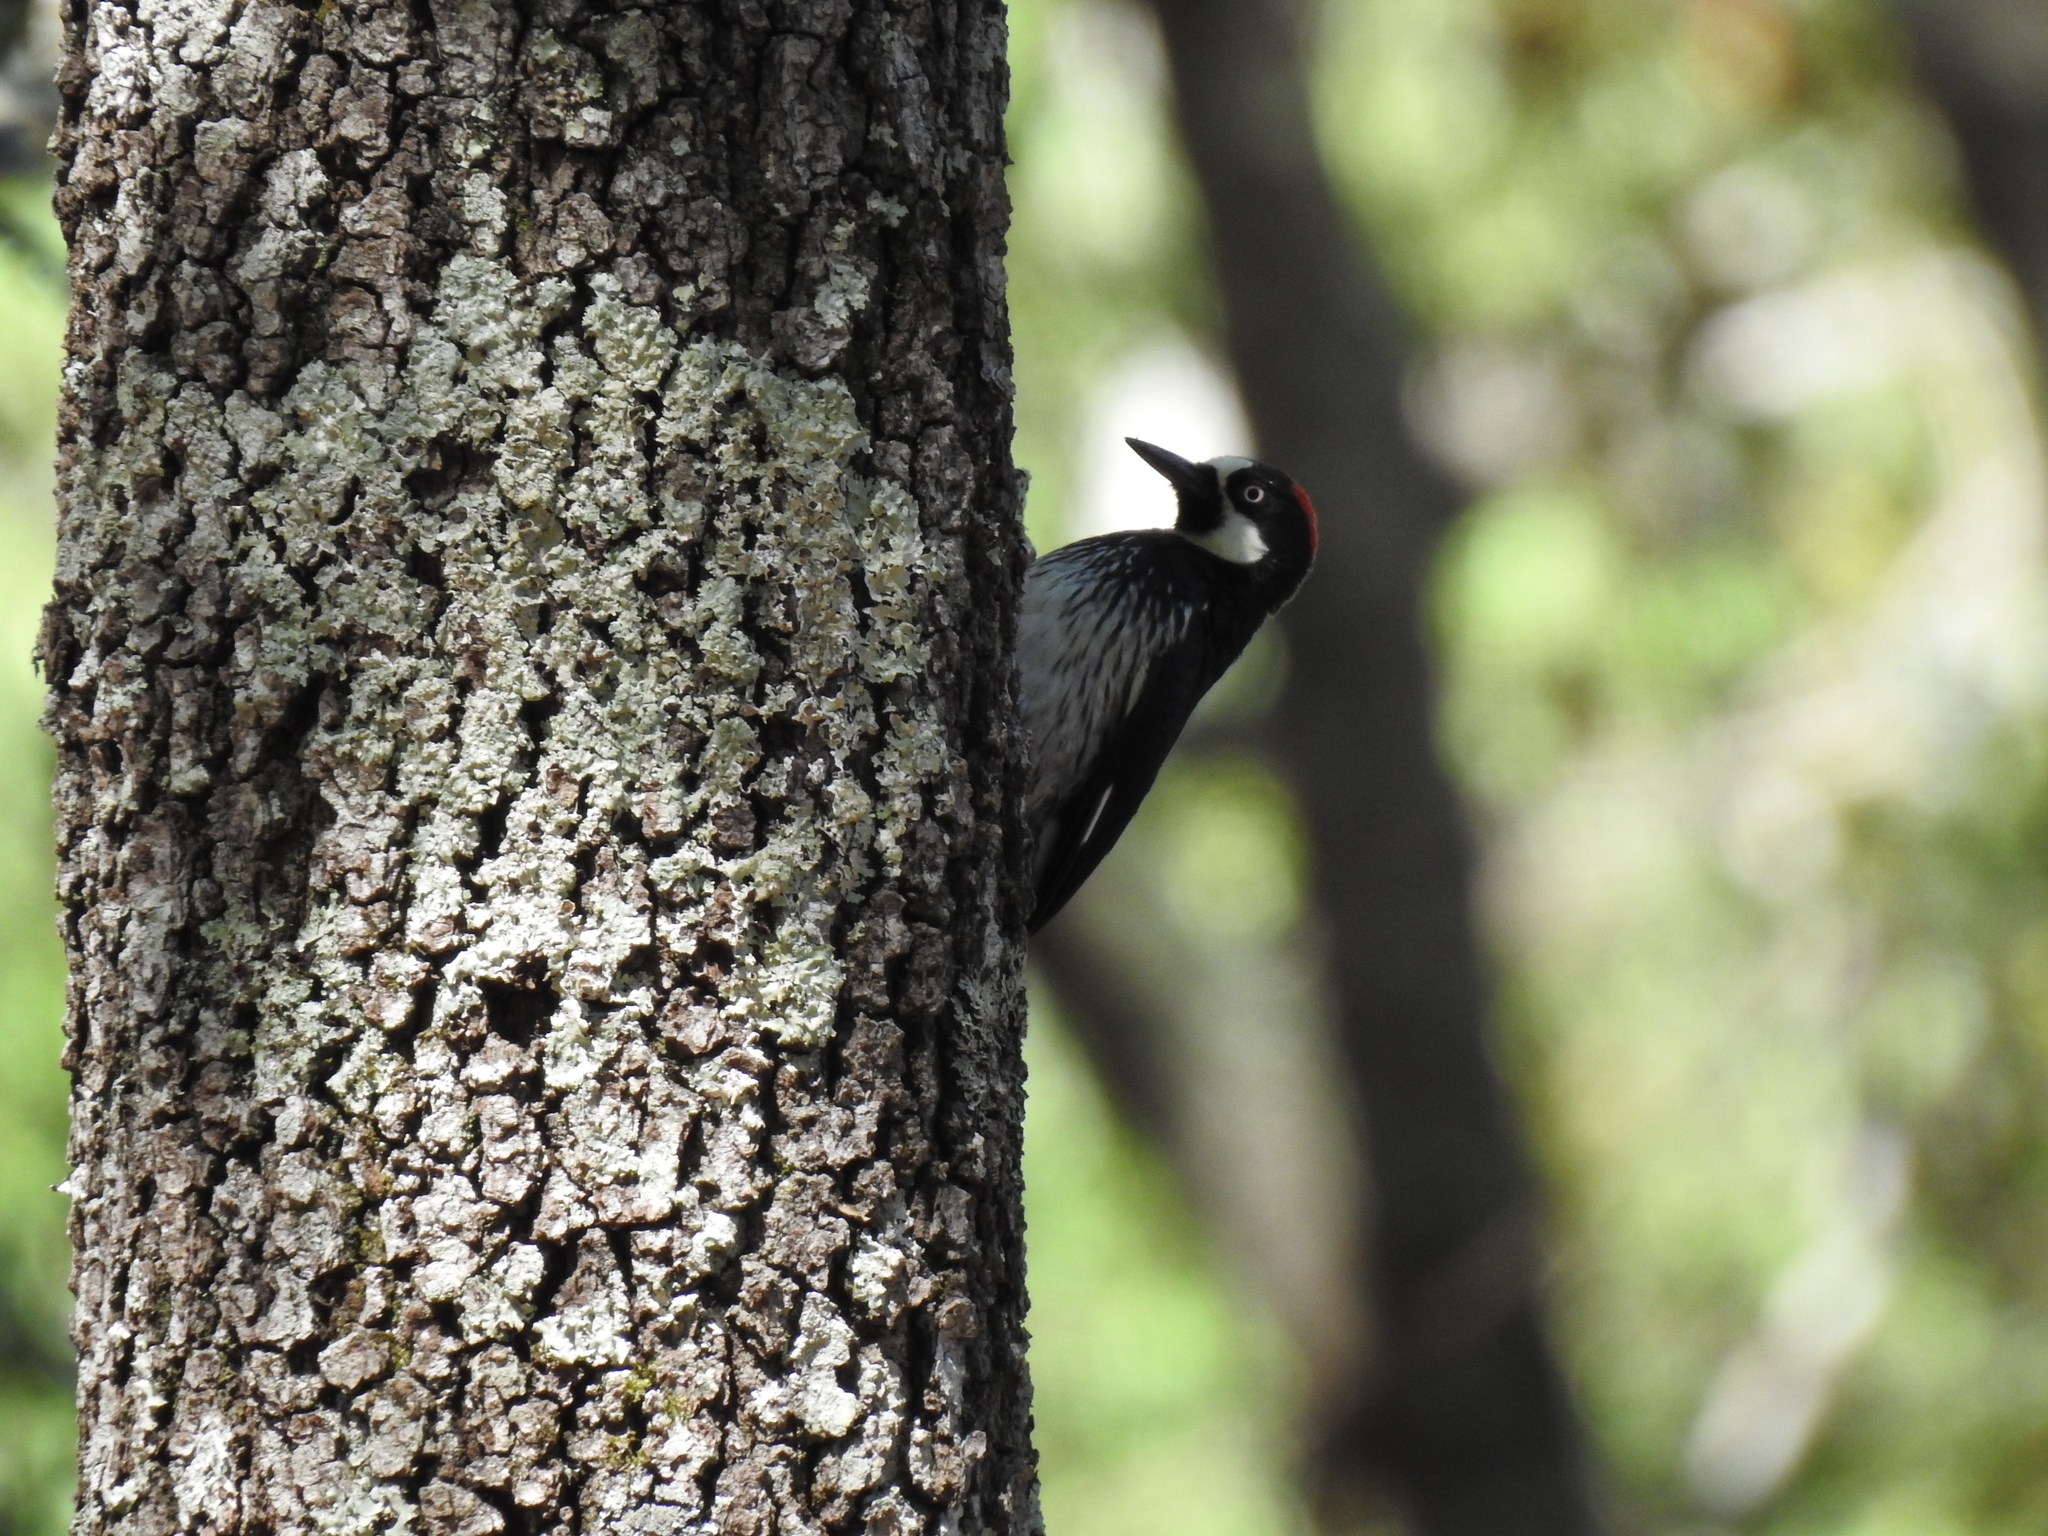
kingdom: Animalia
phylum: Chordata
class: Aves
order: Piciformes
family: Picidae
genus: Melanerpes
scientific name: Melanerpes formicivorus
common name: Acorn woodpecker
